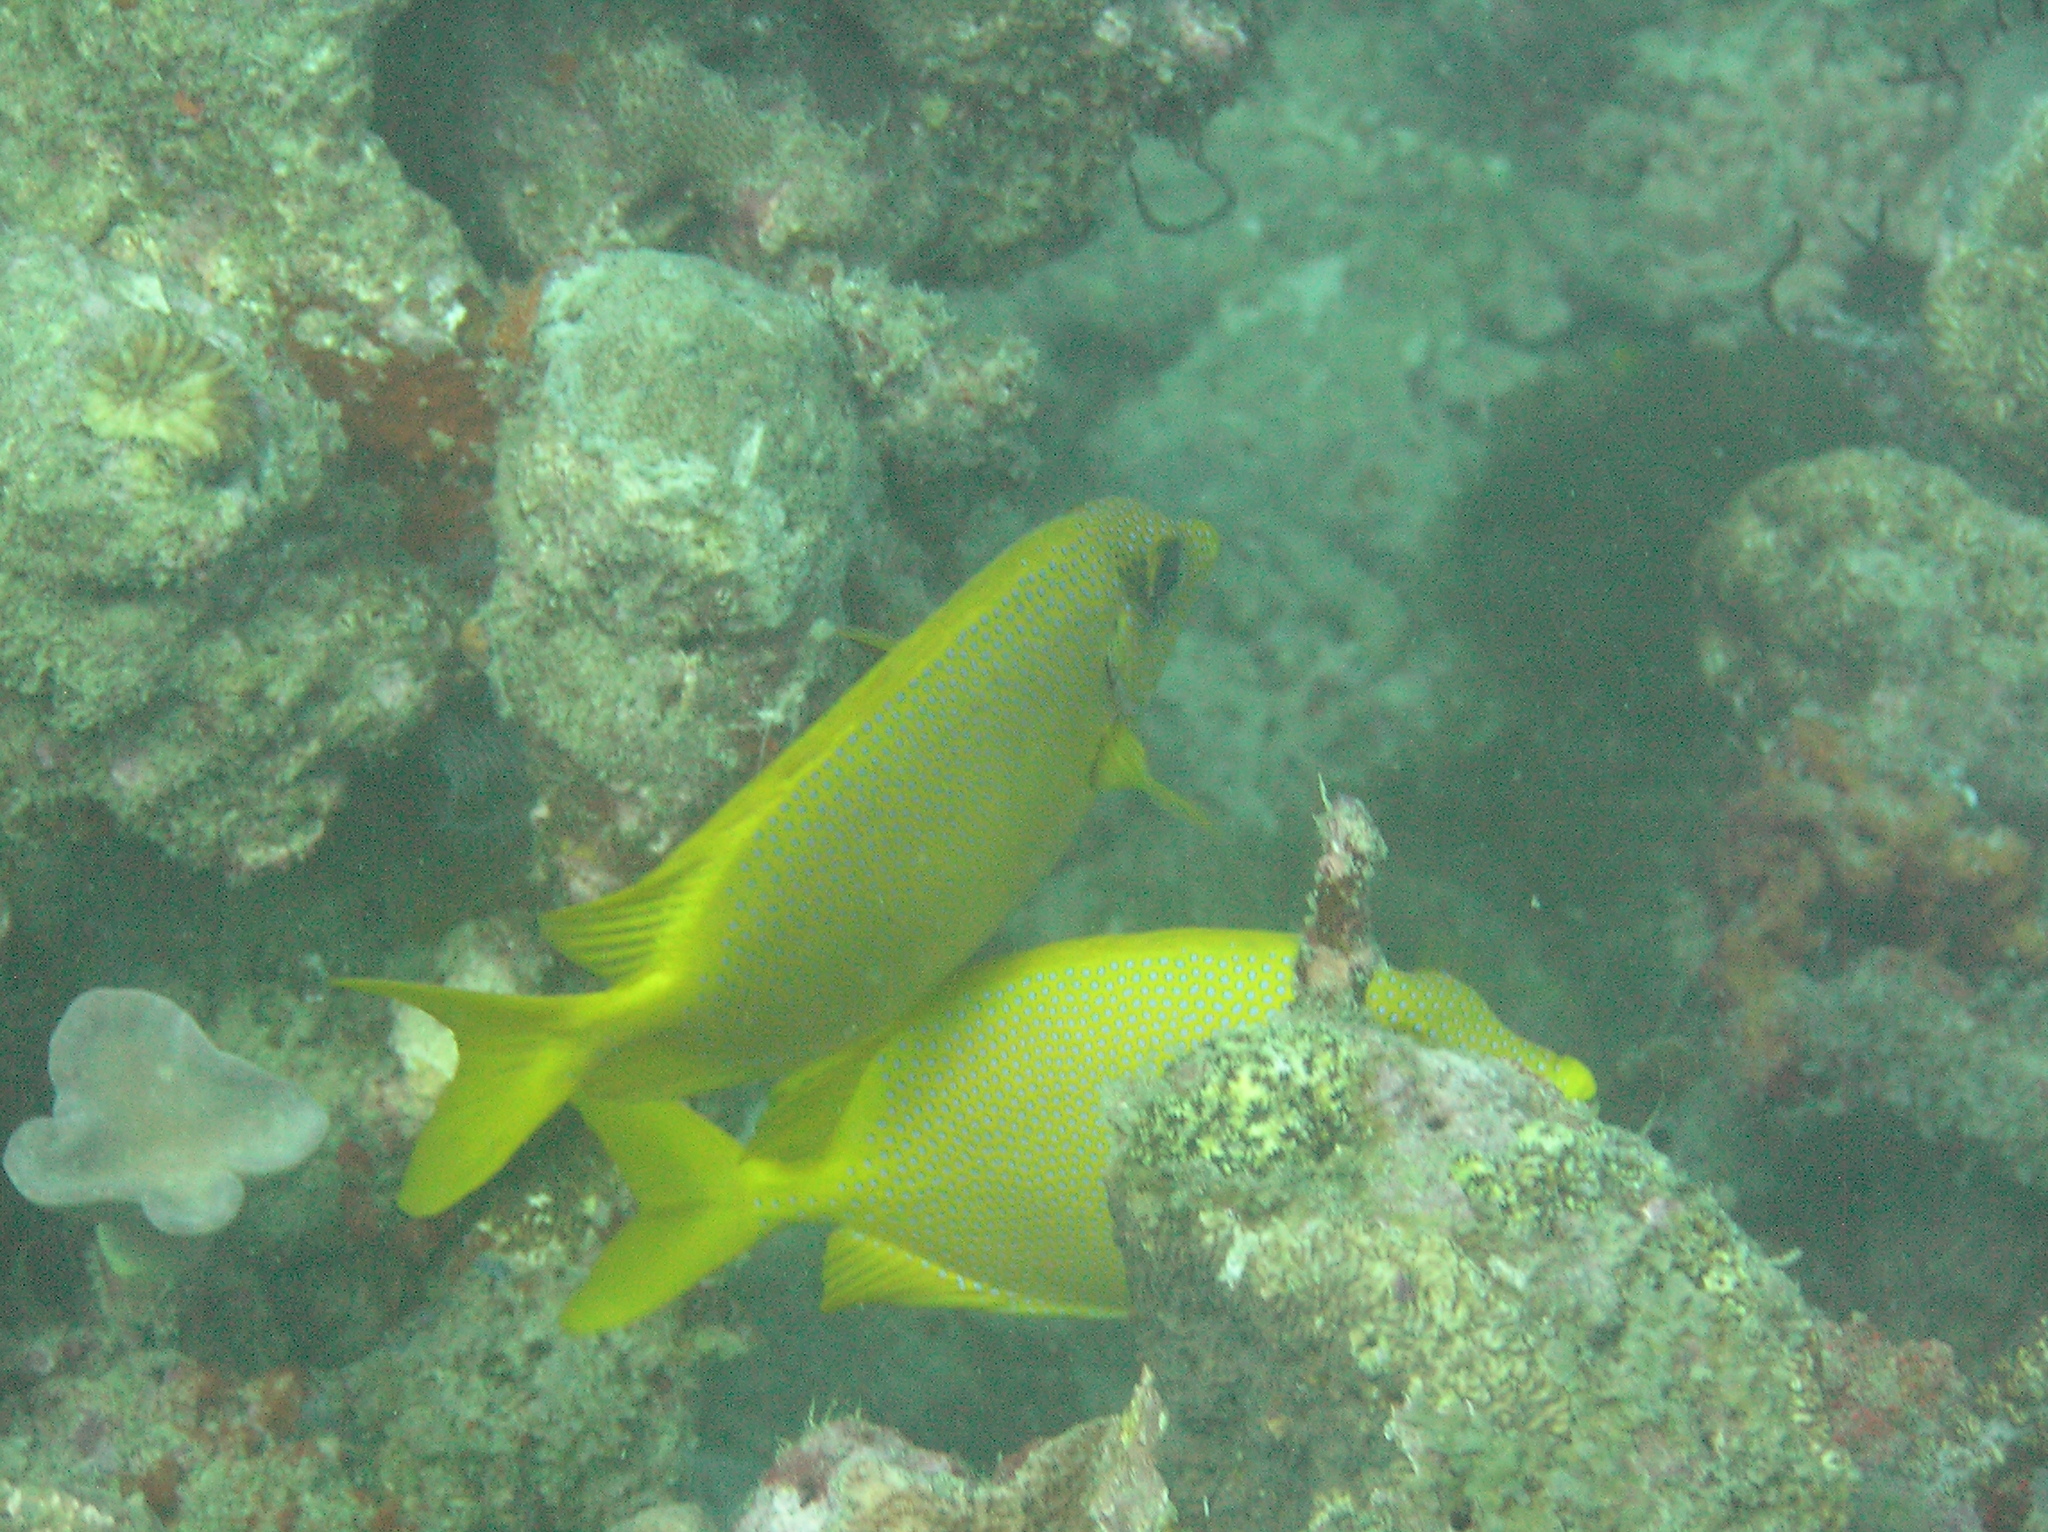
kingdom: Animalia
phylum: Chordata
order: Perciformes
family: Siganidae
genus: Siganus
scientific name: Siganus corallinus
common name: Coral rabbitfish
